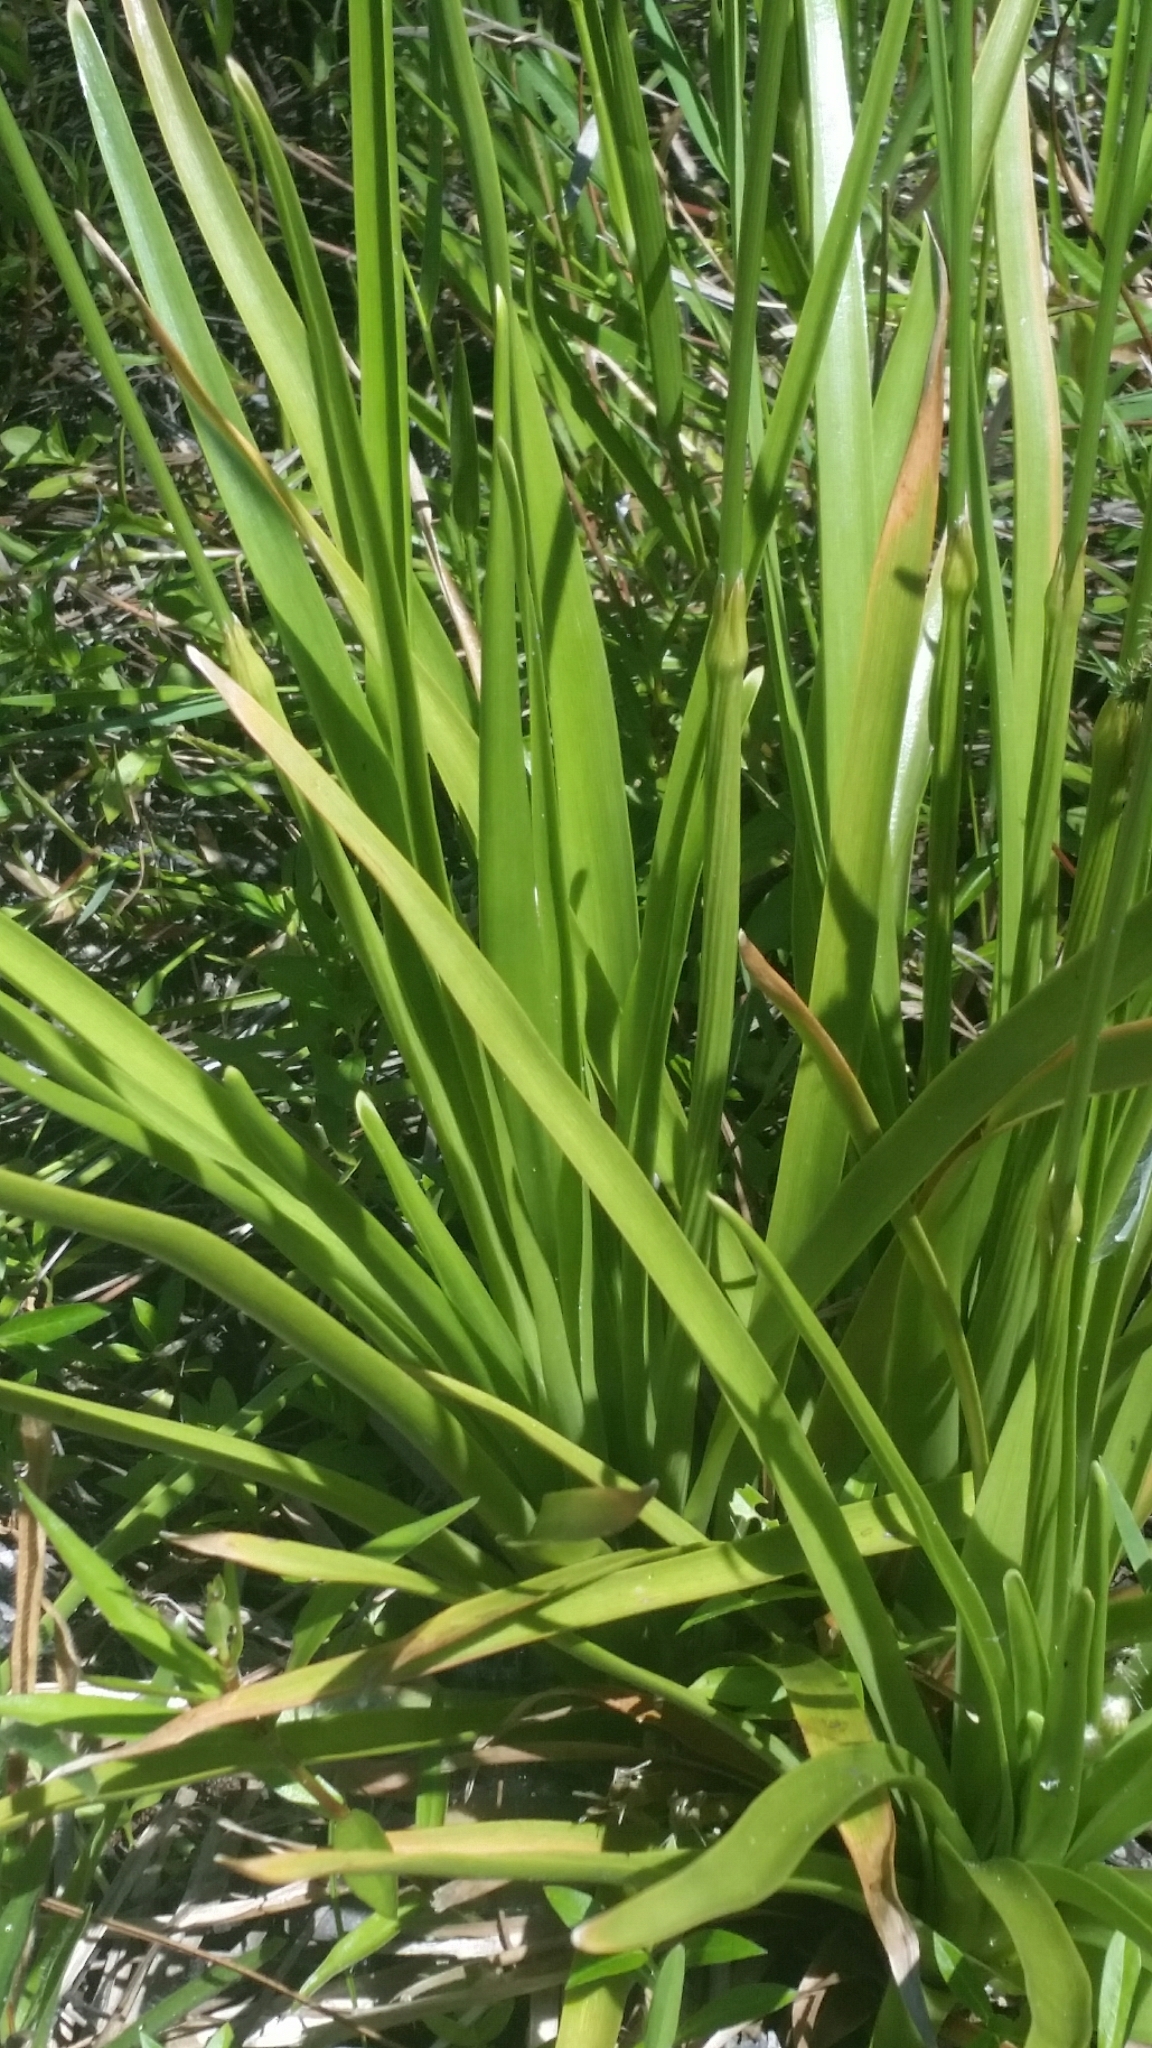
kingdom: Plantae
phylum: Tracheophyta
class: Liliopsida
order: Poales
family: Eriocaulaceae
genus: Eriocaulon
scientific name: Eriocaulon decangulare
